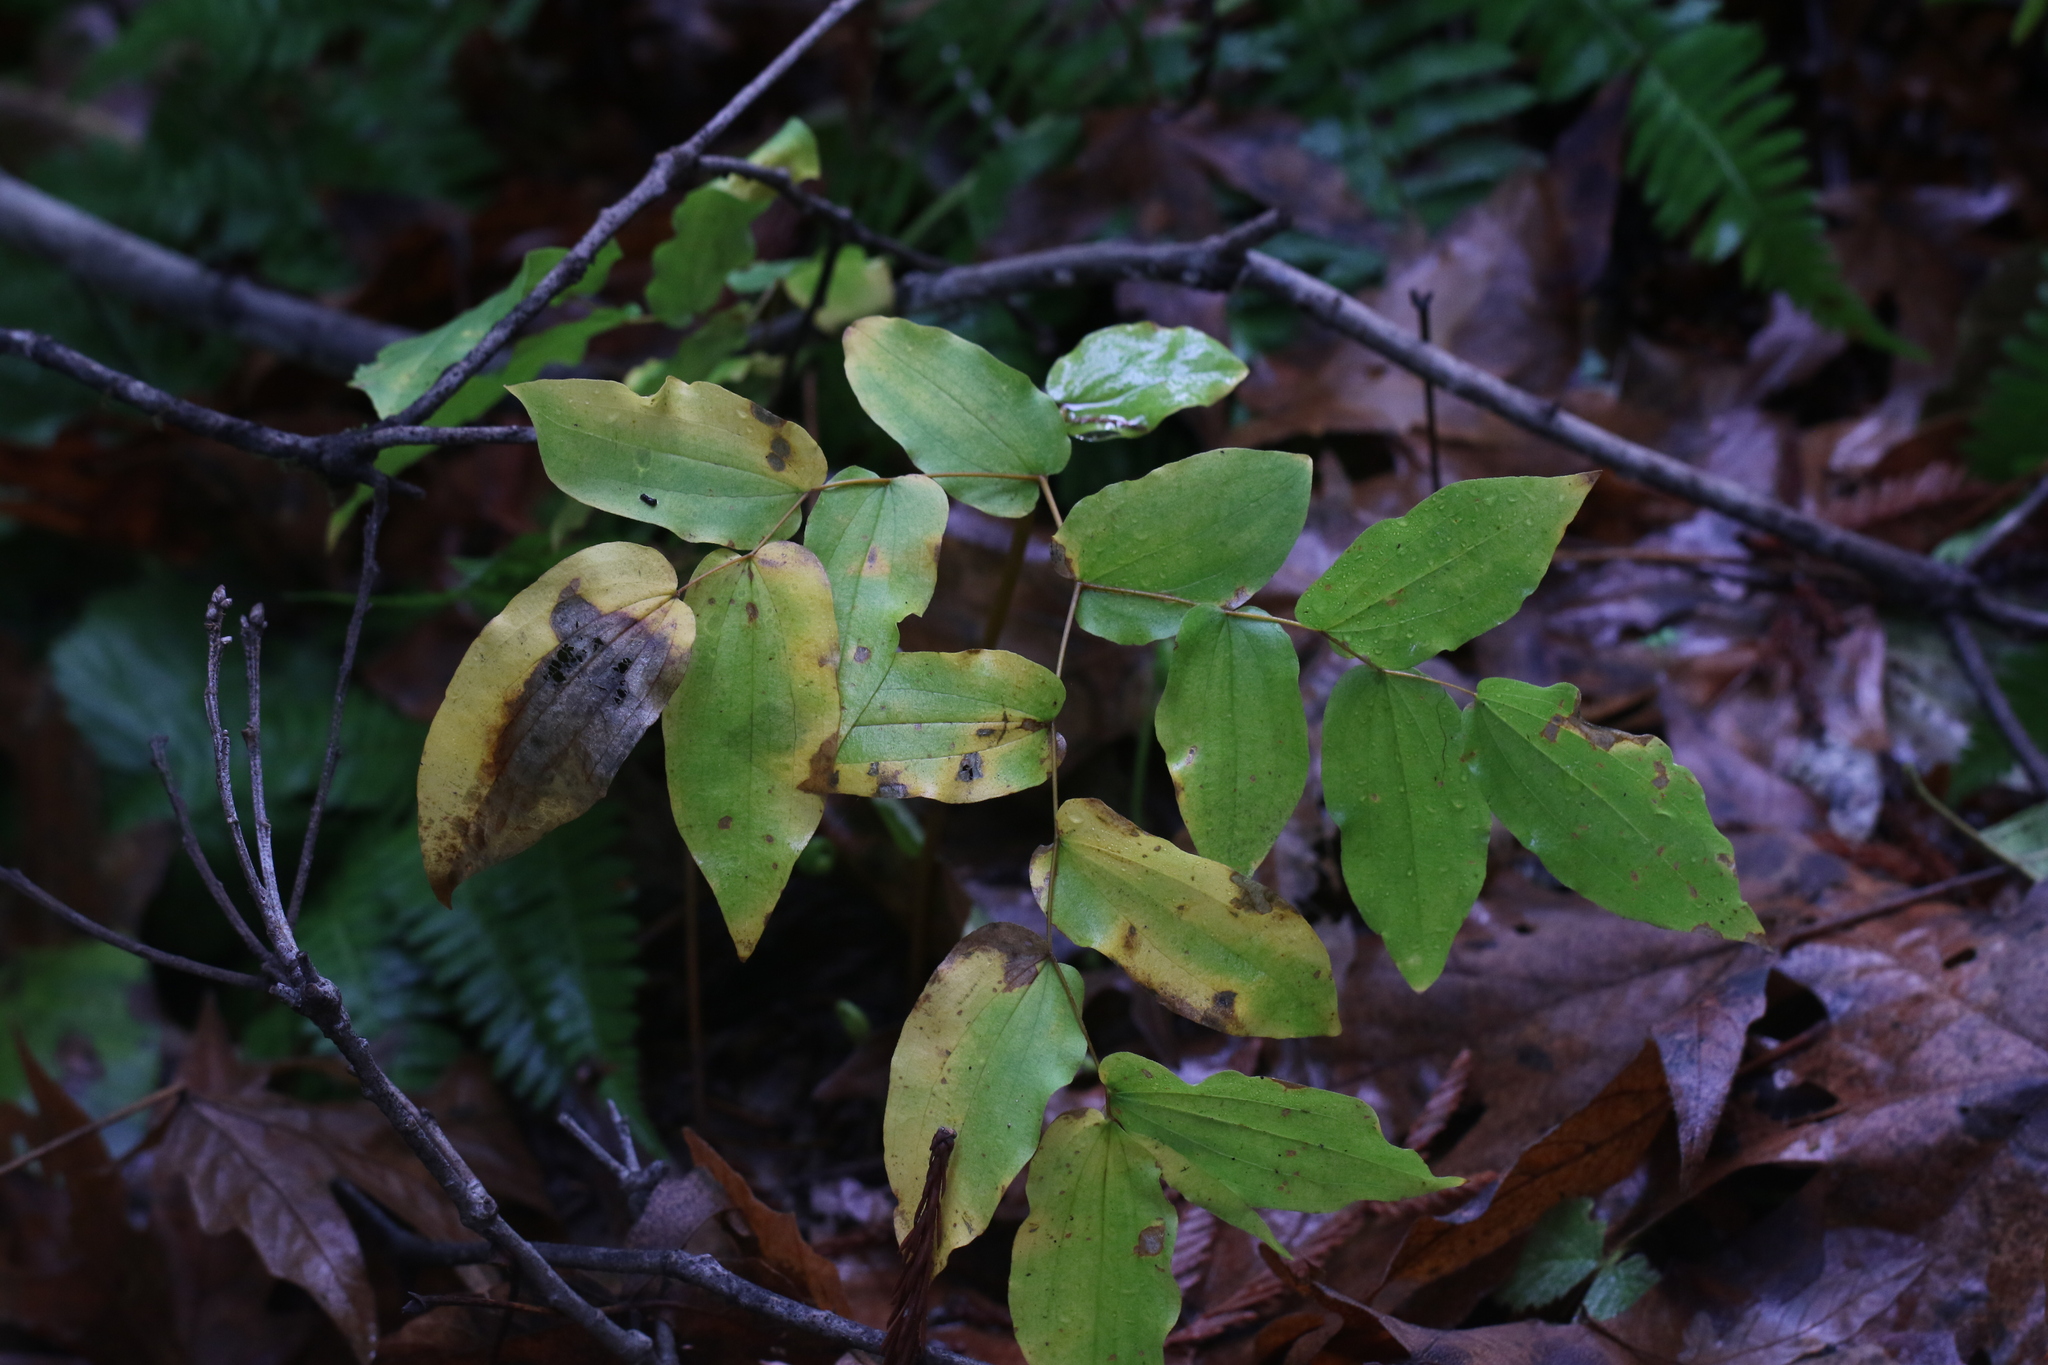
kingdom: Plantae
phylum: Tracheophyta
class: Liliopsida
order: Liliales
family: Liliaceae
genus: Prosartes
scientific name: Prosartes hookeri
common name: Fairy-bells
